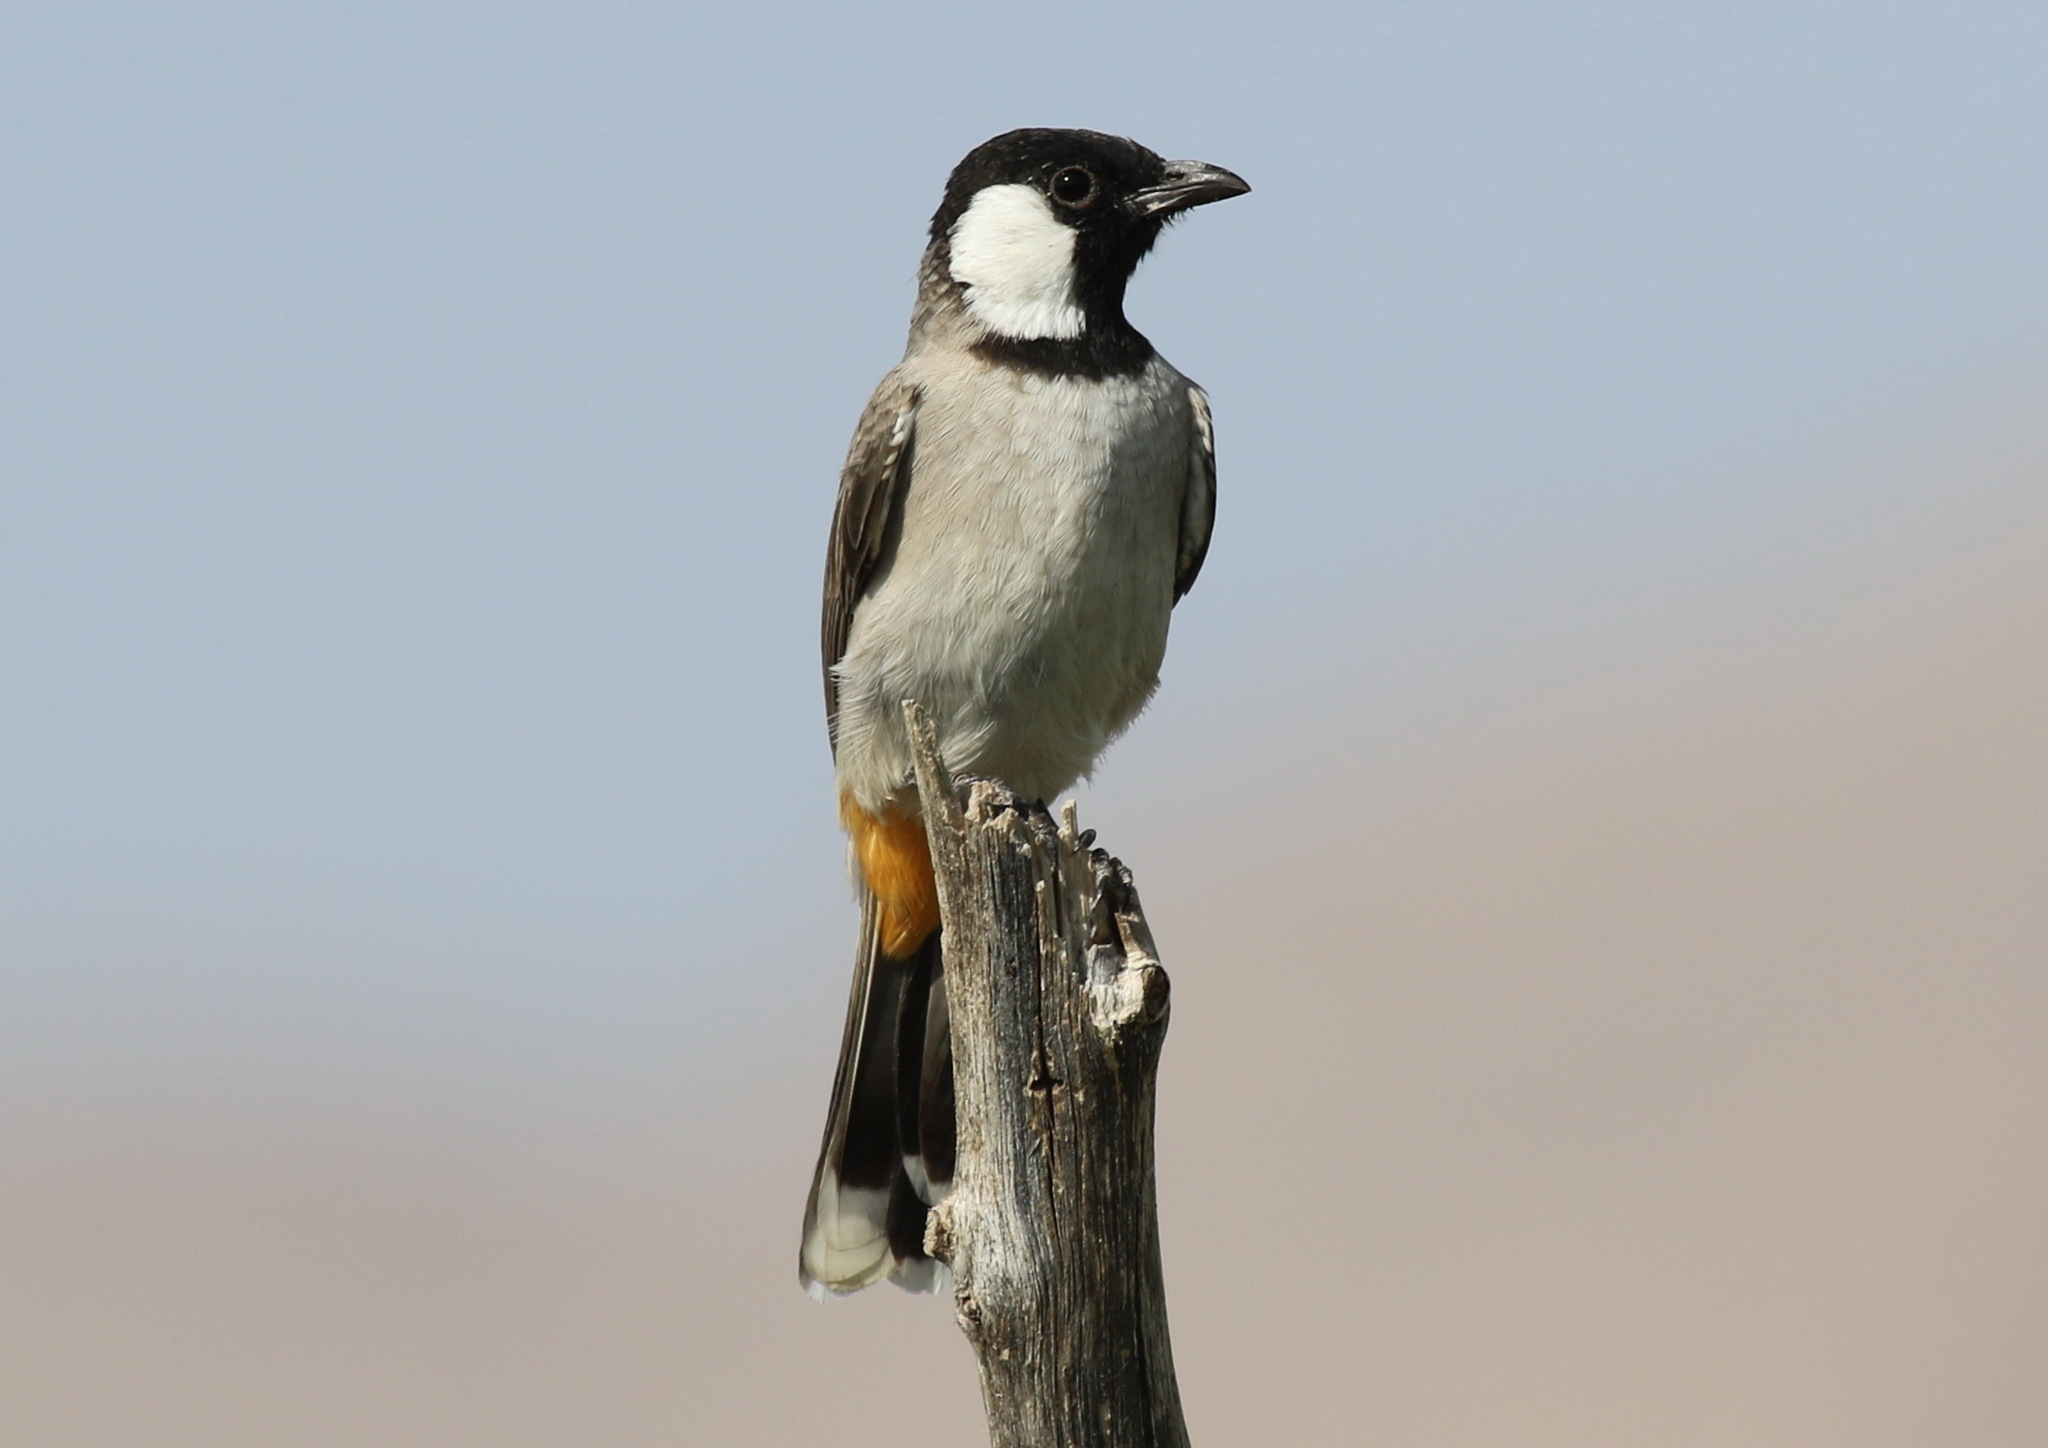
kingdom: Animalia
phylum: Chordata
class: Aves
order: Passeriformes
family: Pycnonotidae
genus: Pycnonotus
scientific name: Pycnonotus leucotis
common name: White-eared bulbul
